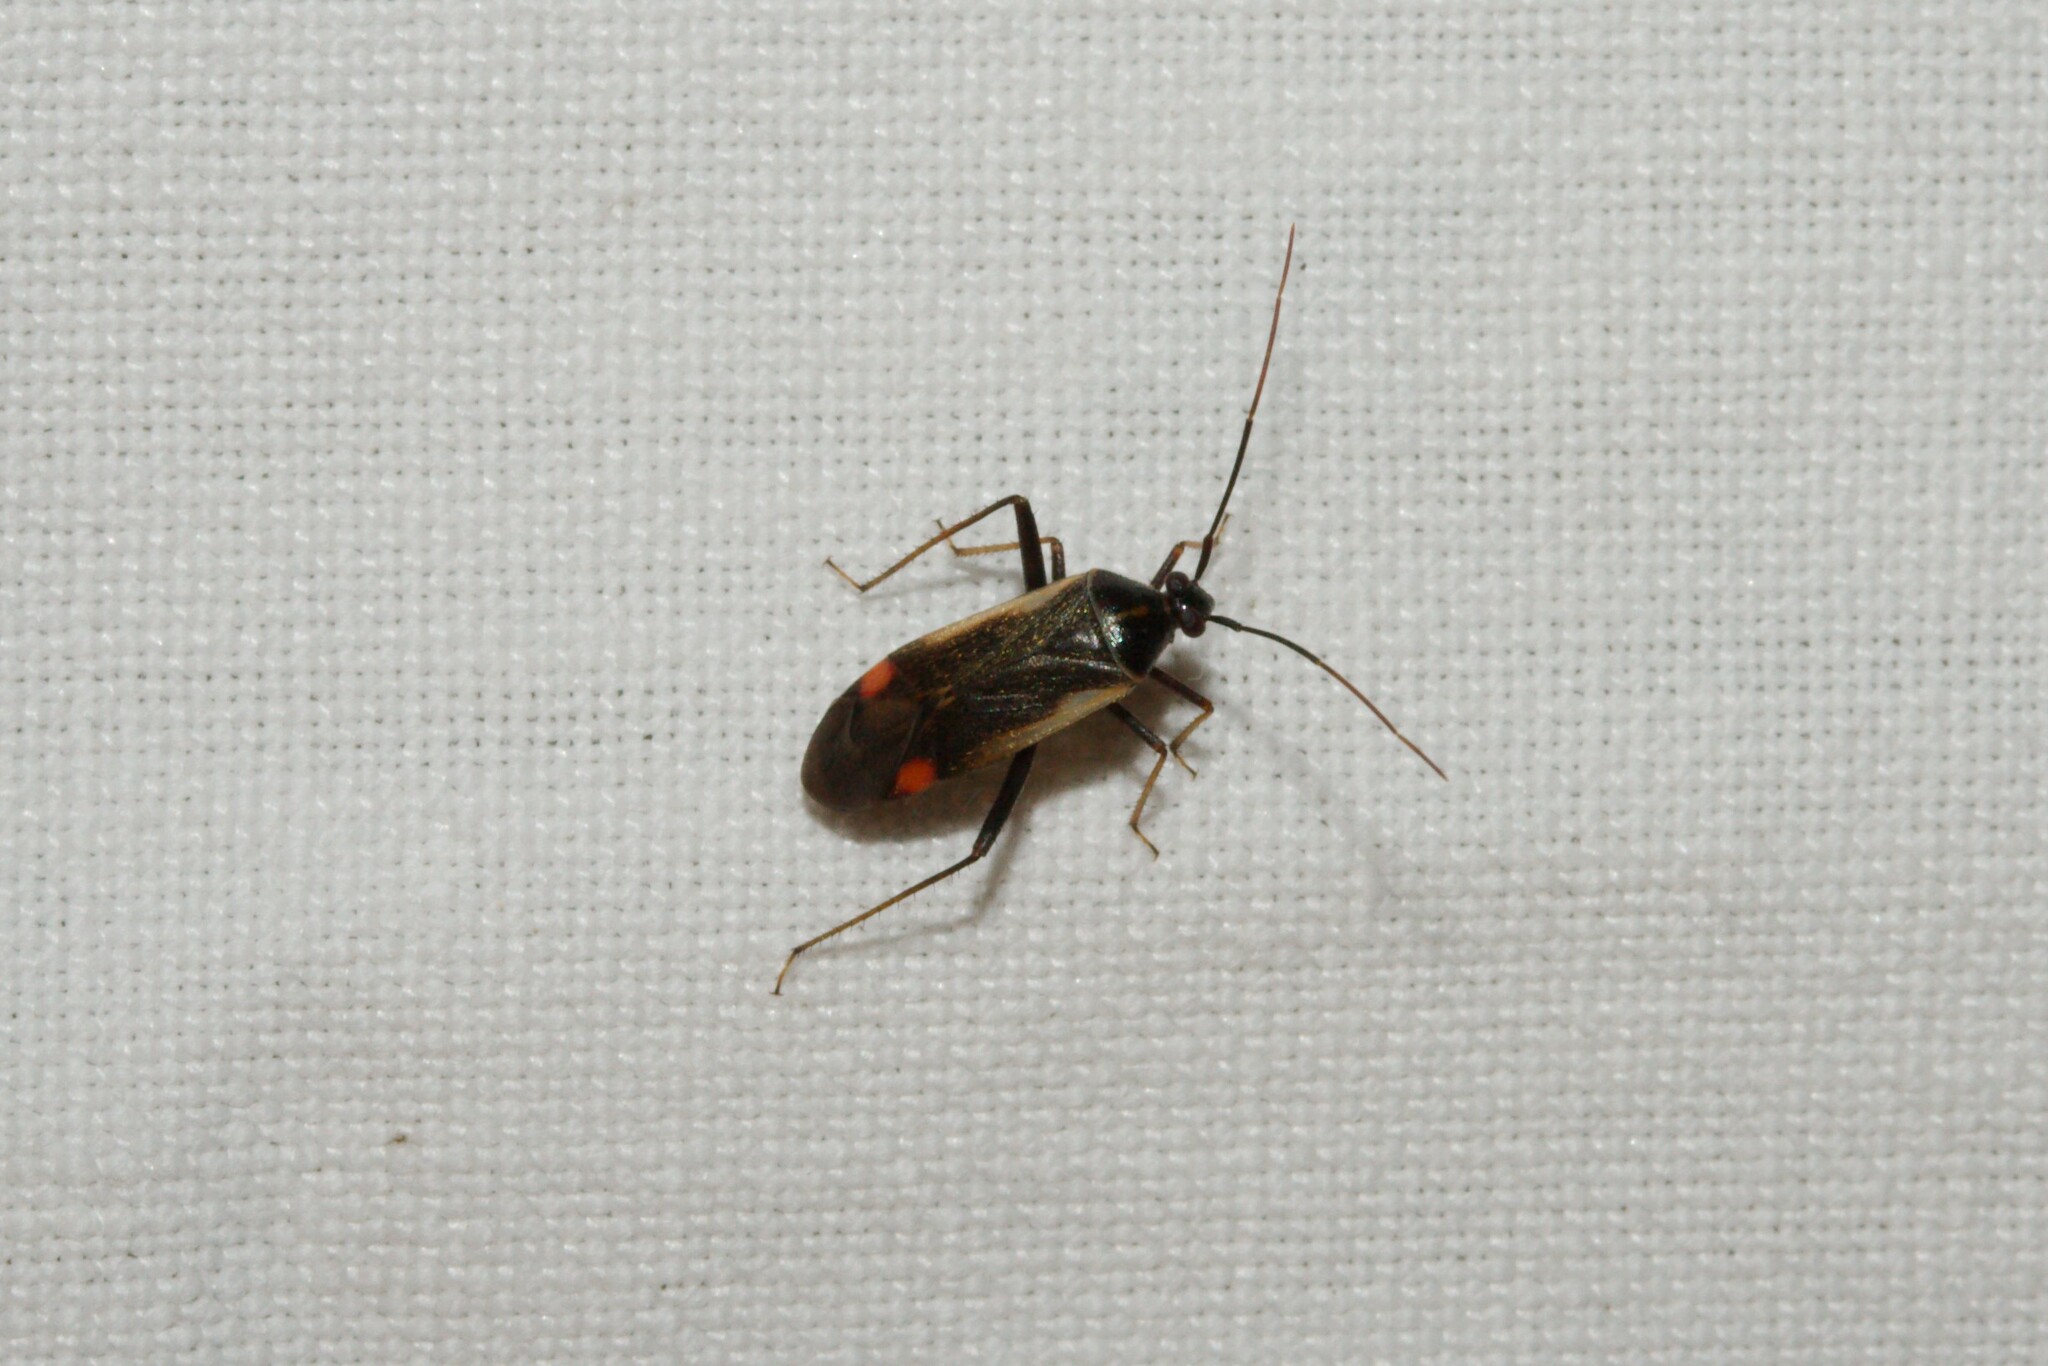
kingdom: Animalia
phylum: Arthropoda
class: Insecta
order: Hemiptera
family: Miridae
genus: Adelphocoris
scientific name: Adelphocoris seticornis
